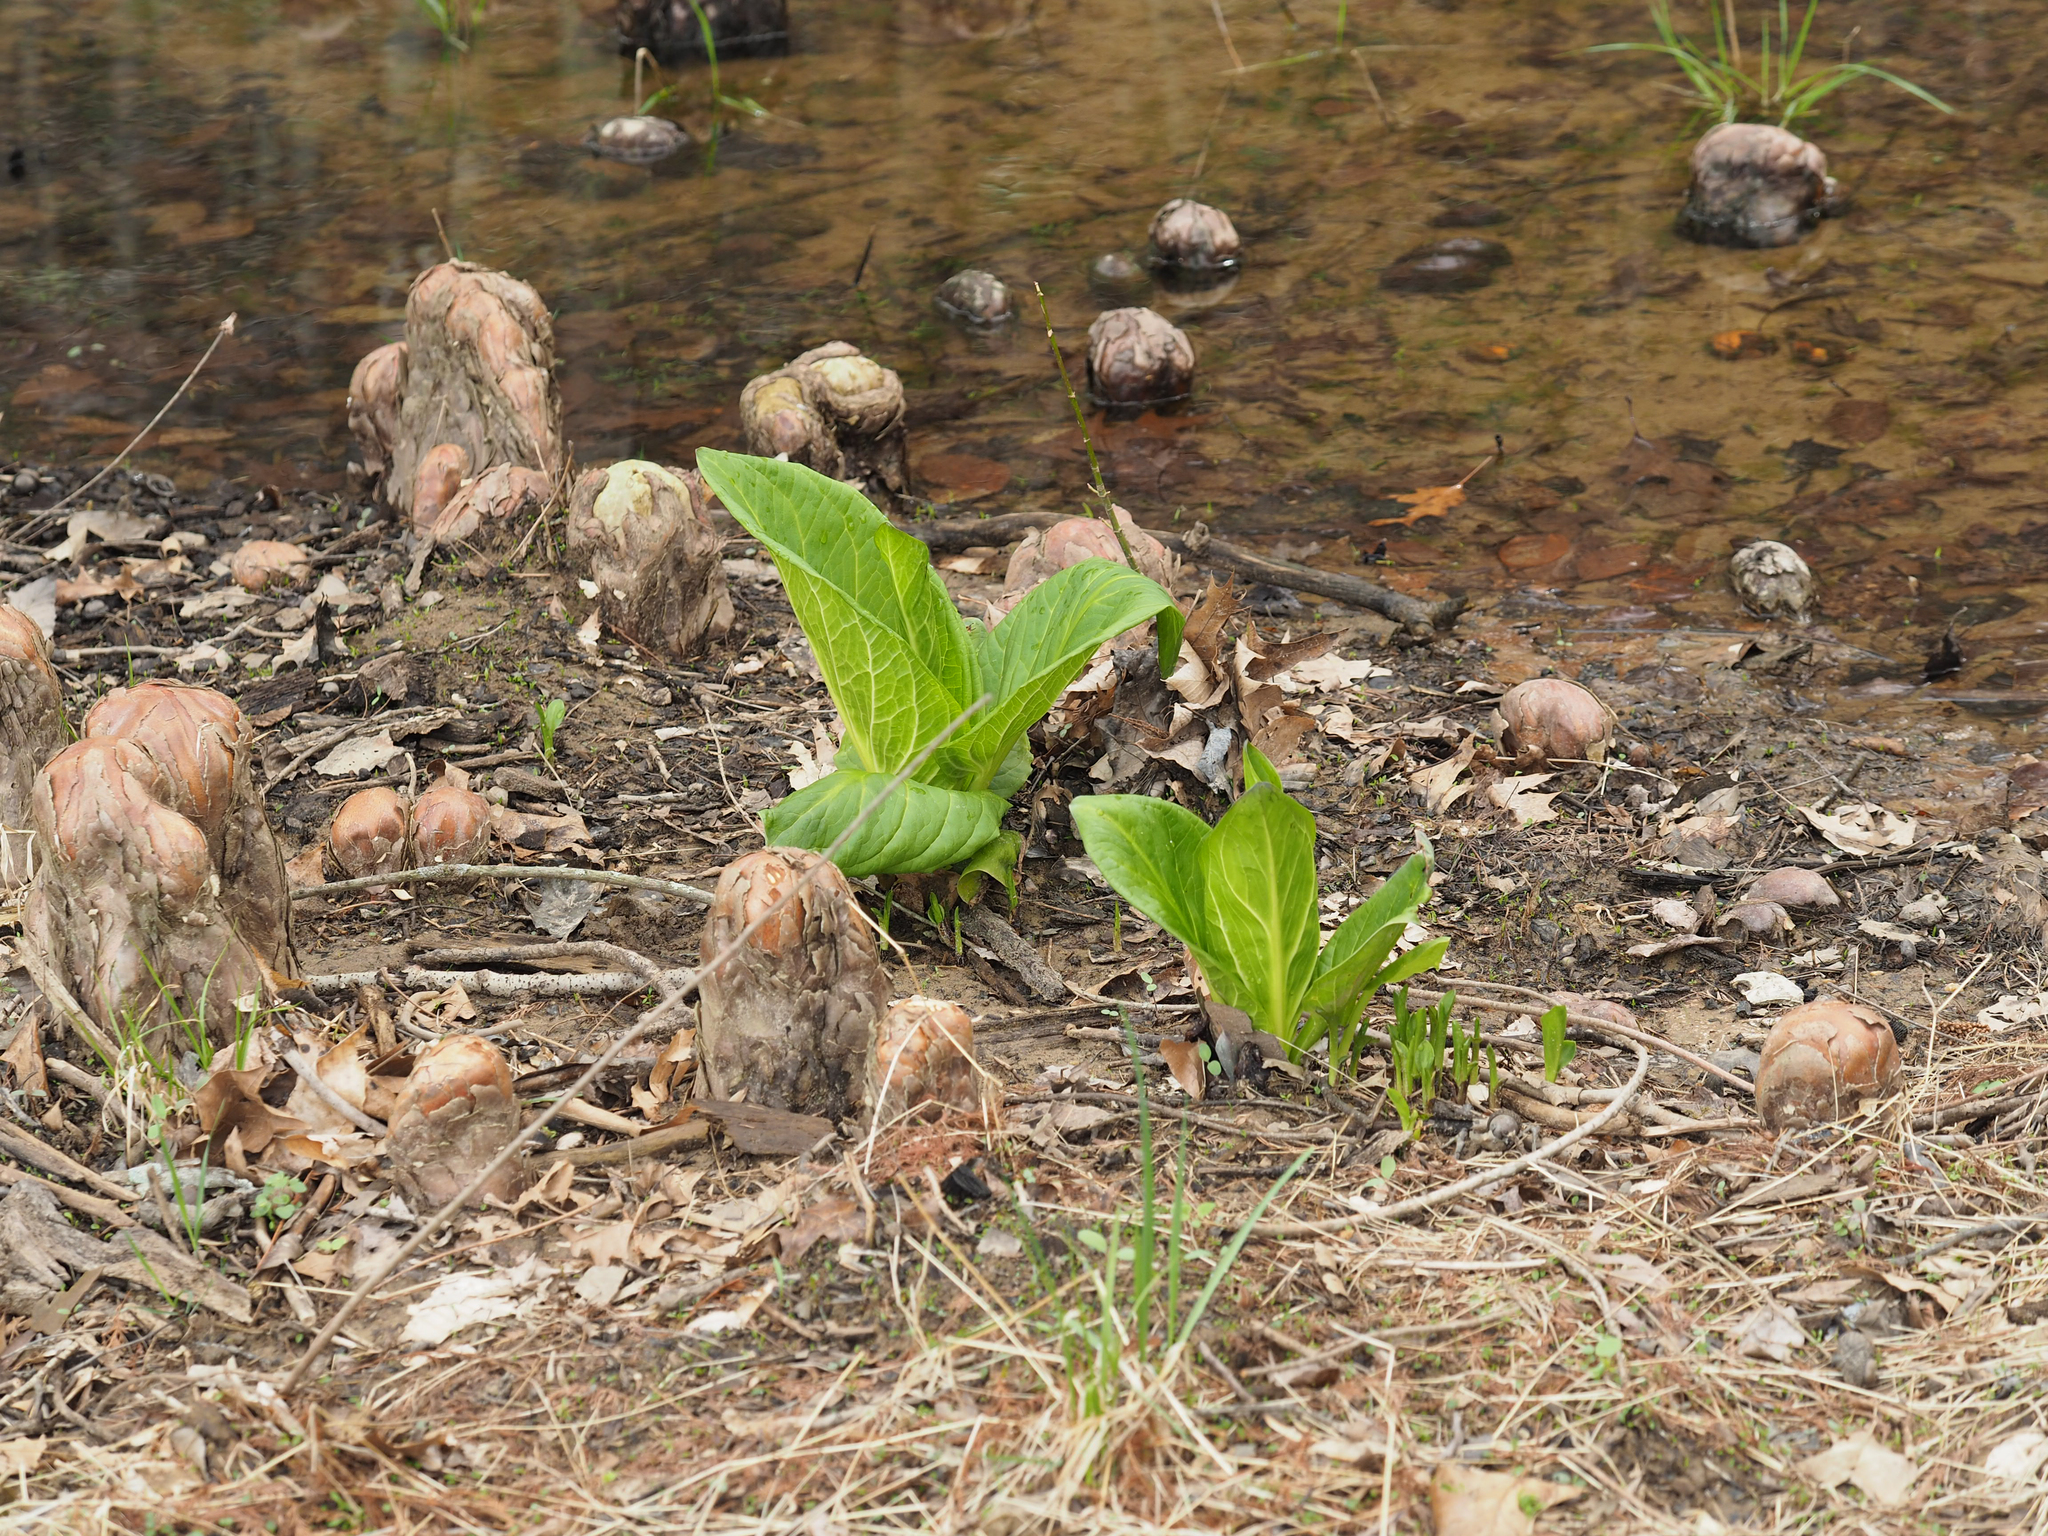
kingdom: Plantae
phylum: Tracheophyta
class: Liliopsida
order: Alismatales
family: Araceae
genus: Symplocarpus
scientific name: Symplocarpus foetidus
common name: Eastern skunk cabbage
